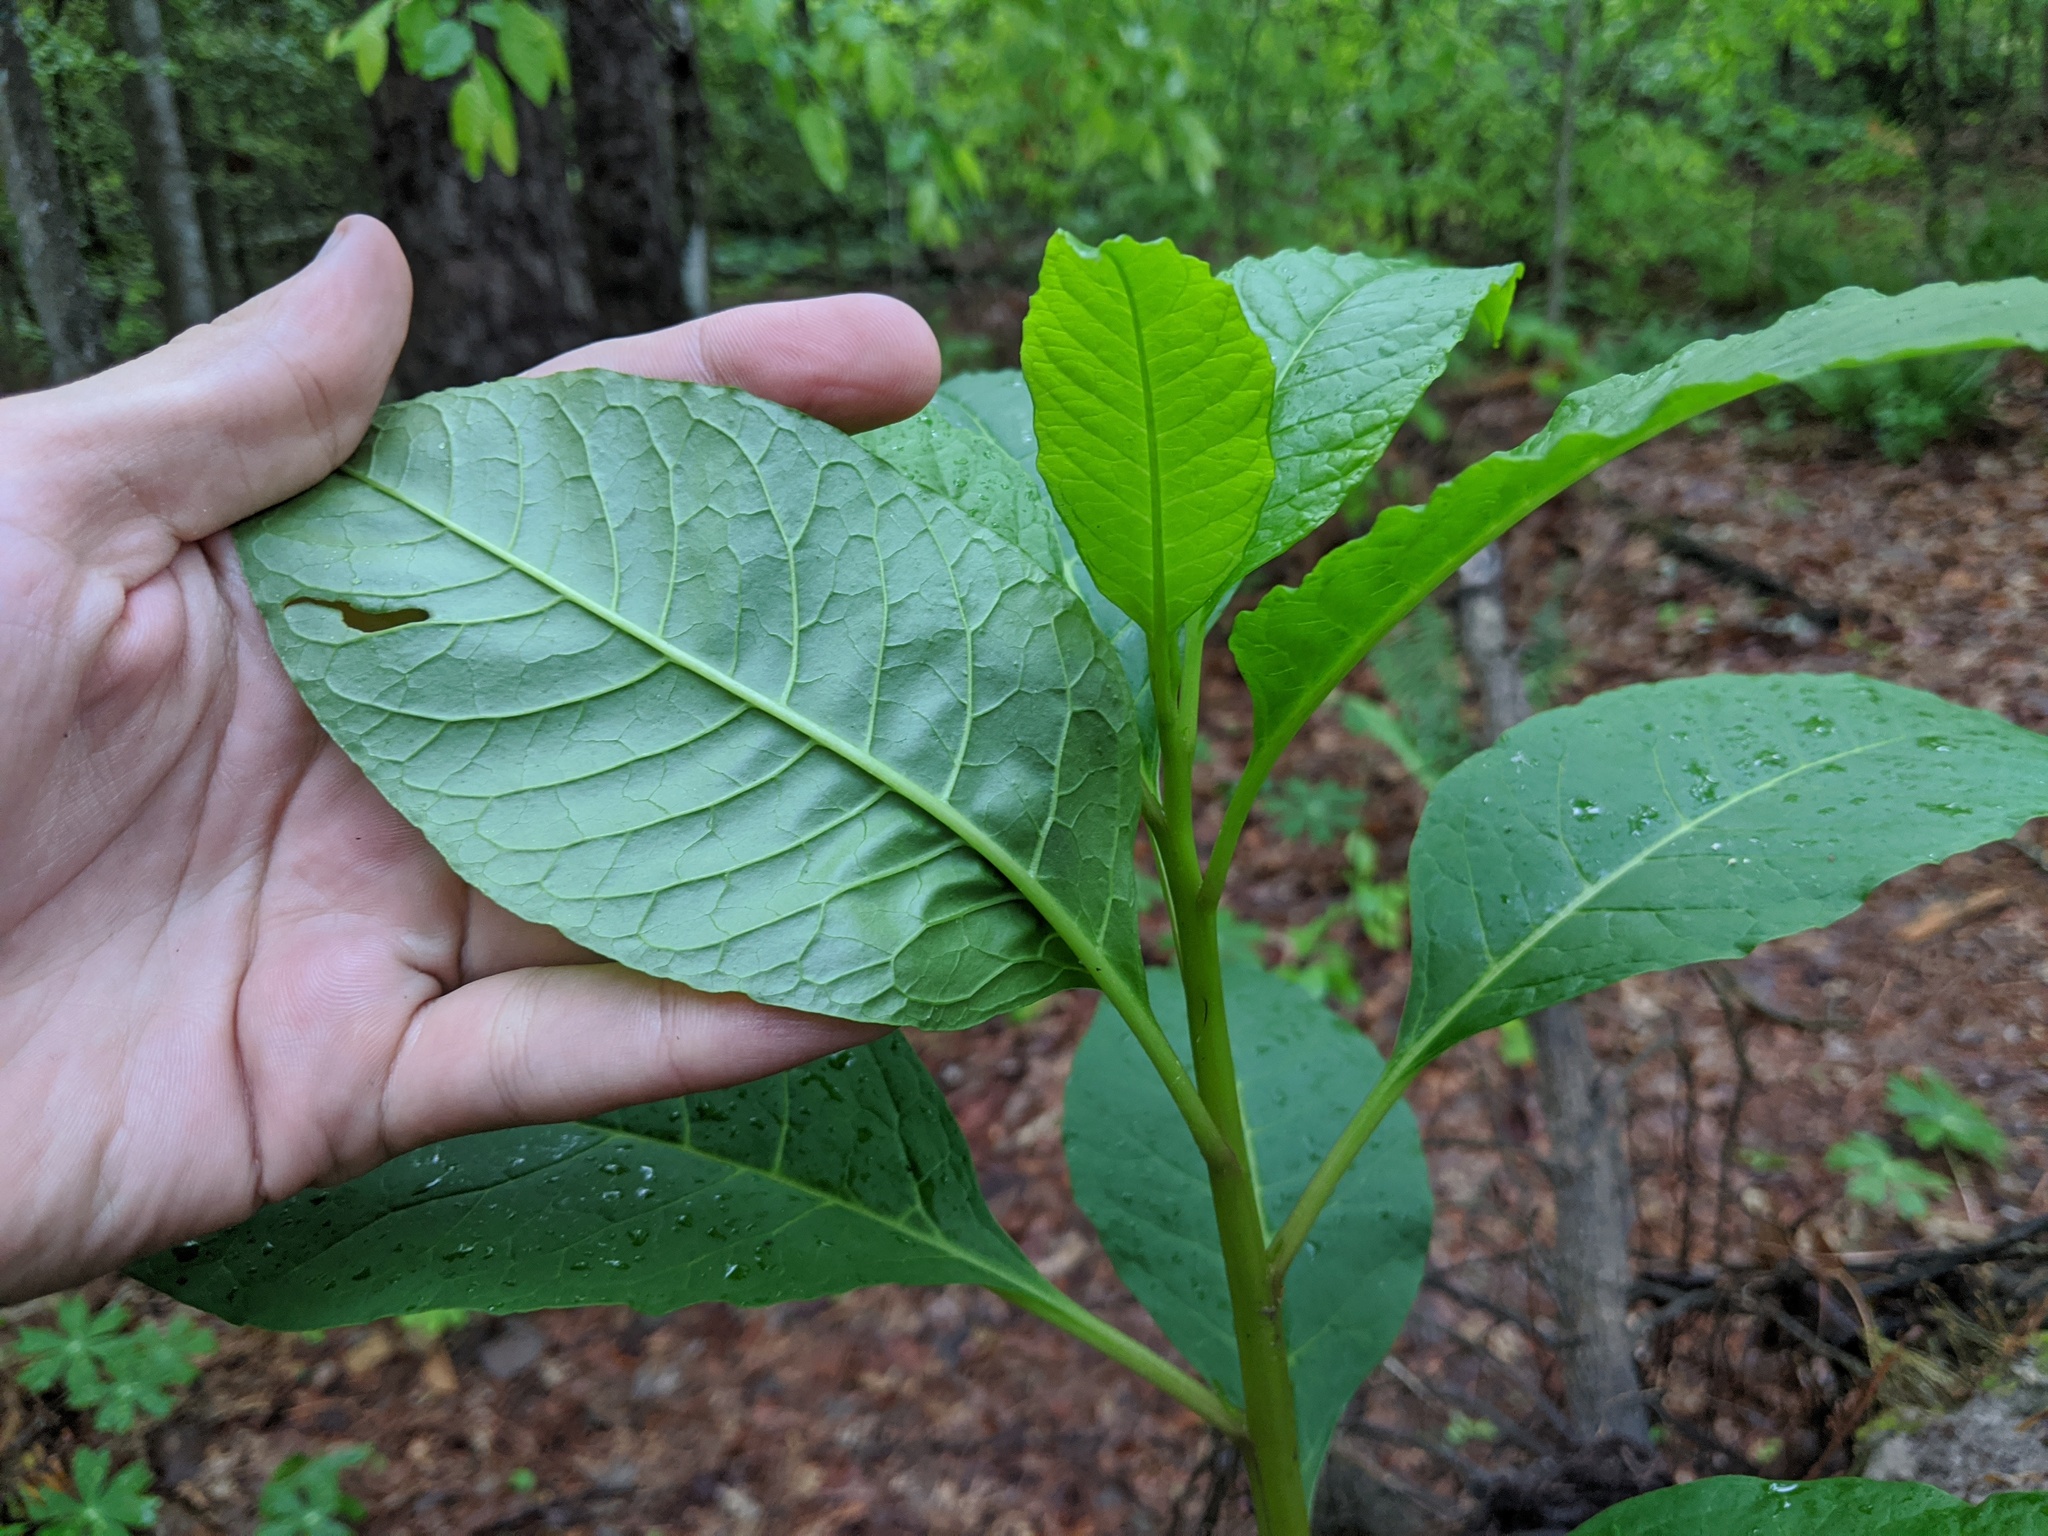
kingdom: Plantae
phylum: Tracheophyta
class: Magnoliopsida
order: Caryophyllales
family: Phytolaccaceae
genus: Phytolacca
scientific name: Phytolacca americana
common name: American pokeweed
